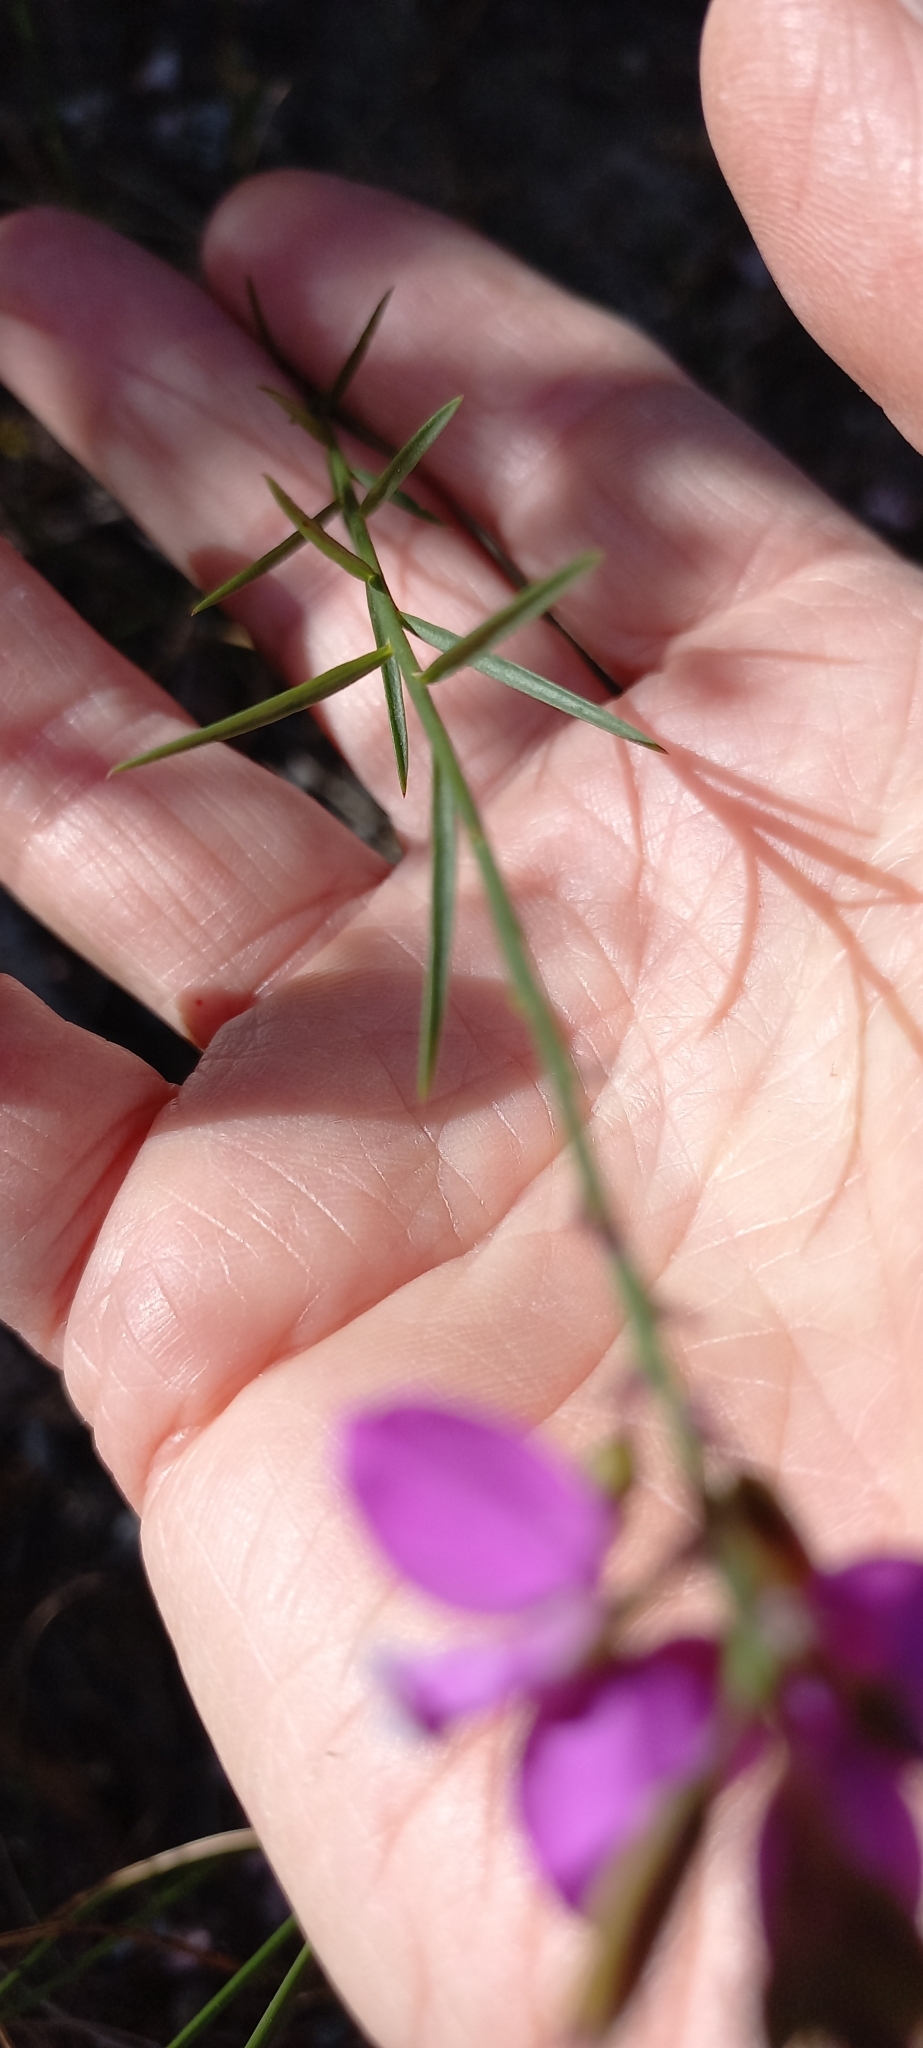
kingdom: Plantae
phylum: Tracheophyta
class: Magnoliopsida
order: Fabales
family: Polygalaceae
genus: Polygala
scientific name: Polygala garcini
